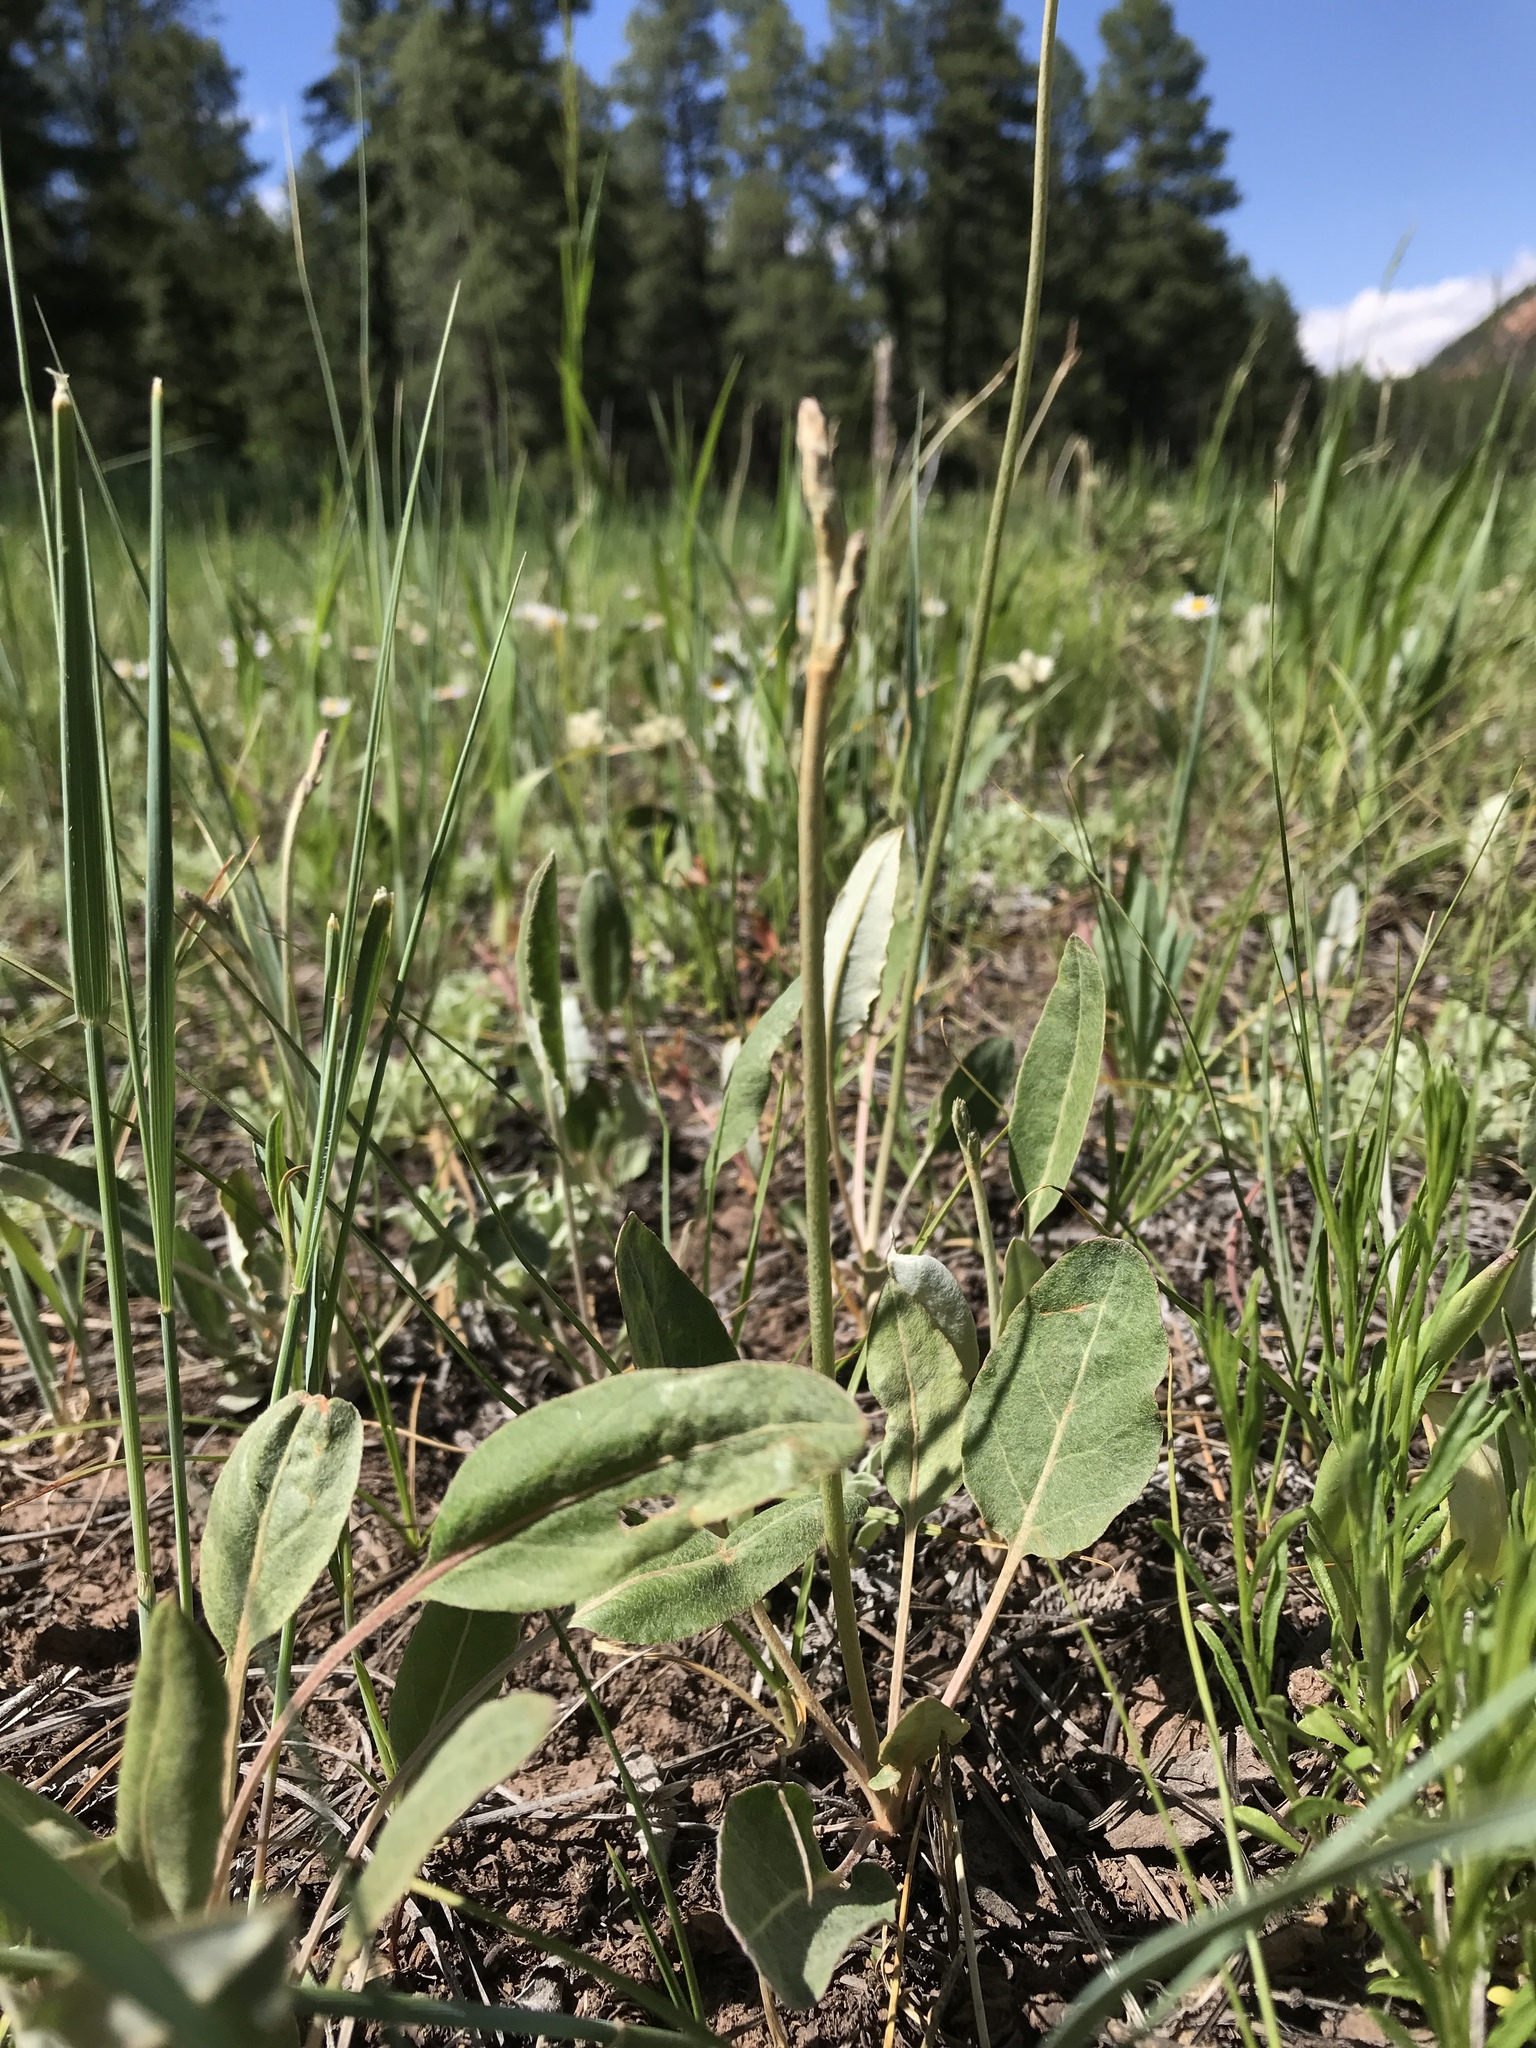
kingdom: Plantae
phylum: Tracheophyta
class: Magnoliopsida
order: Caryophyllales
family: Polygonaceae
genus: Eriogonum
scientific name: Eriogonum racemosum
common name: Redroot wild buckwheat
